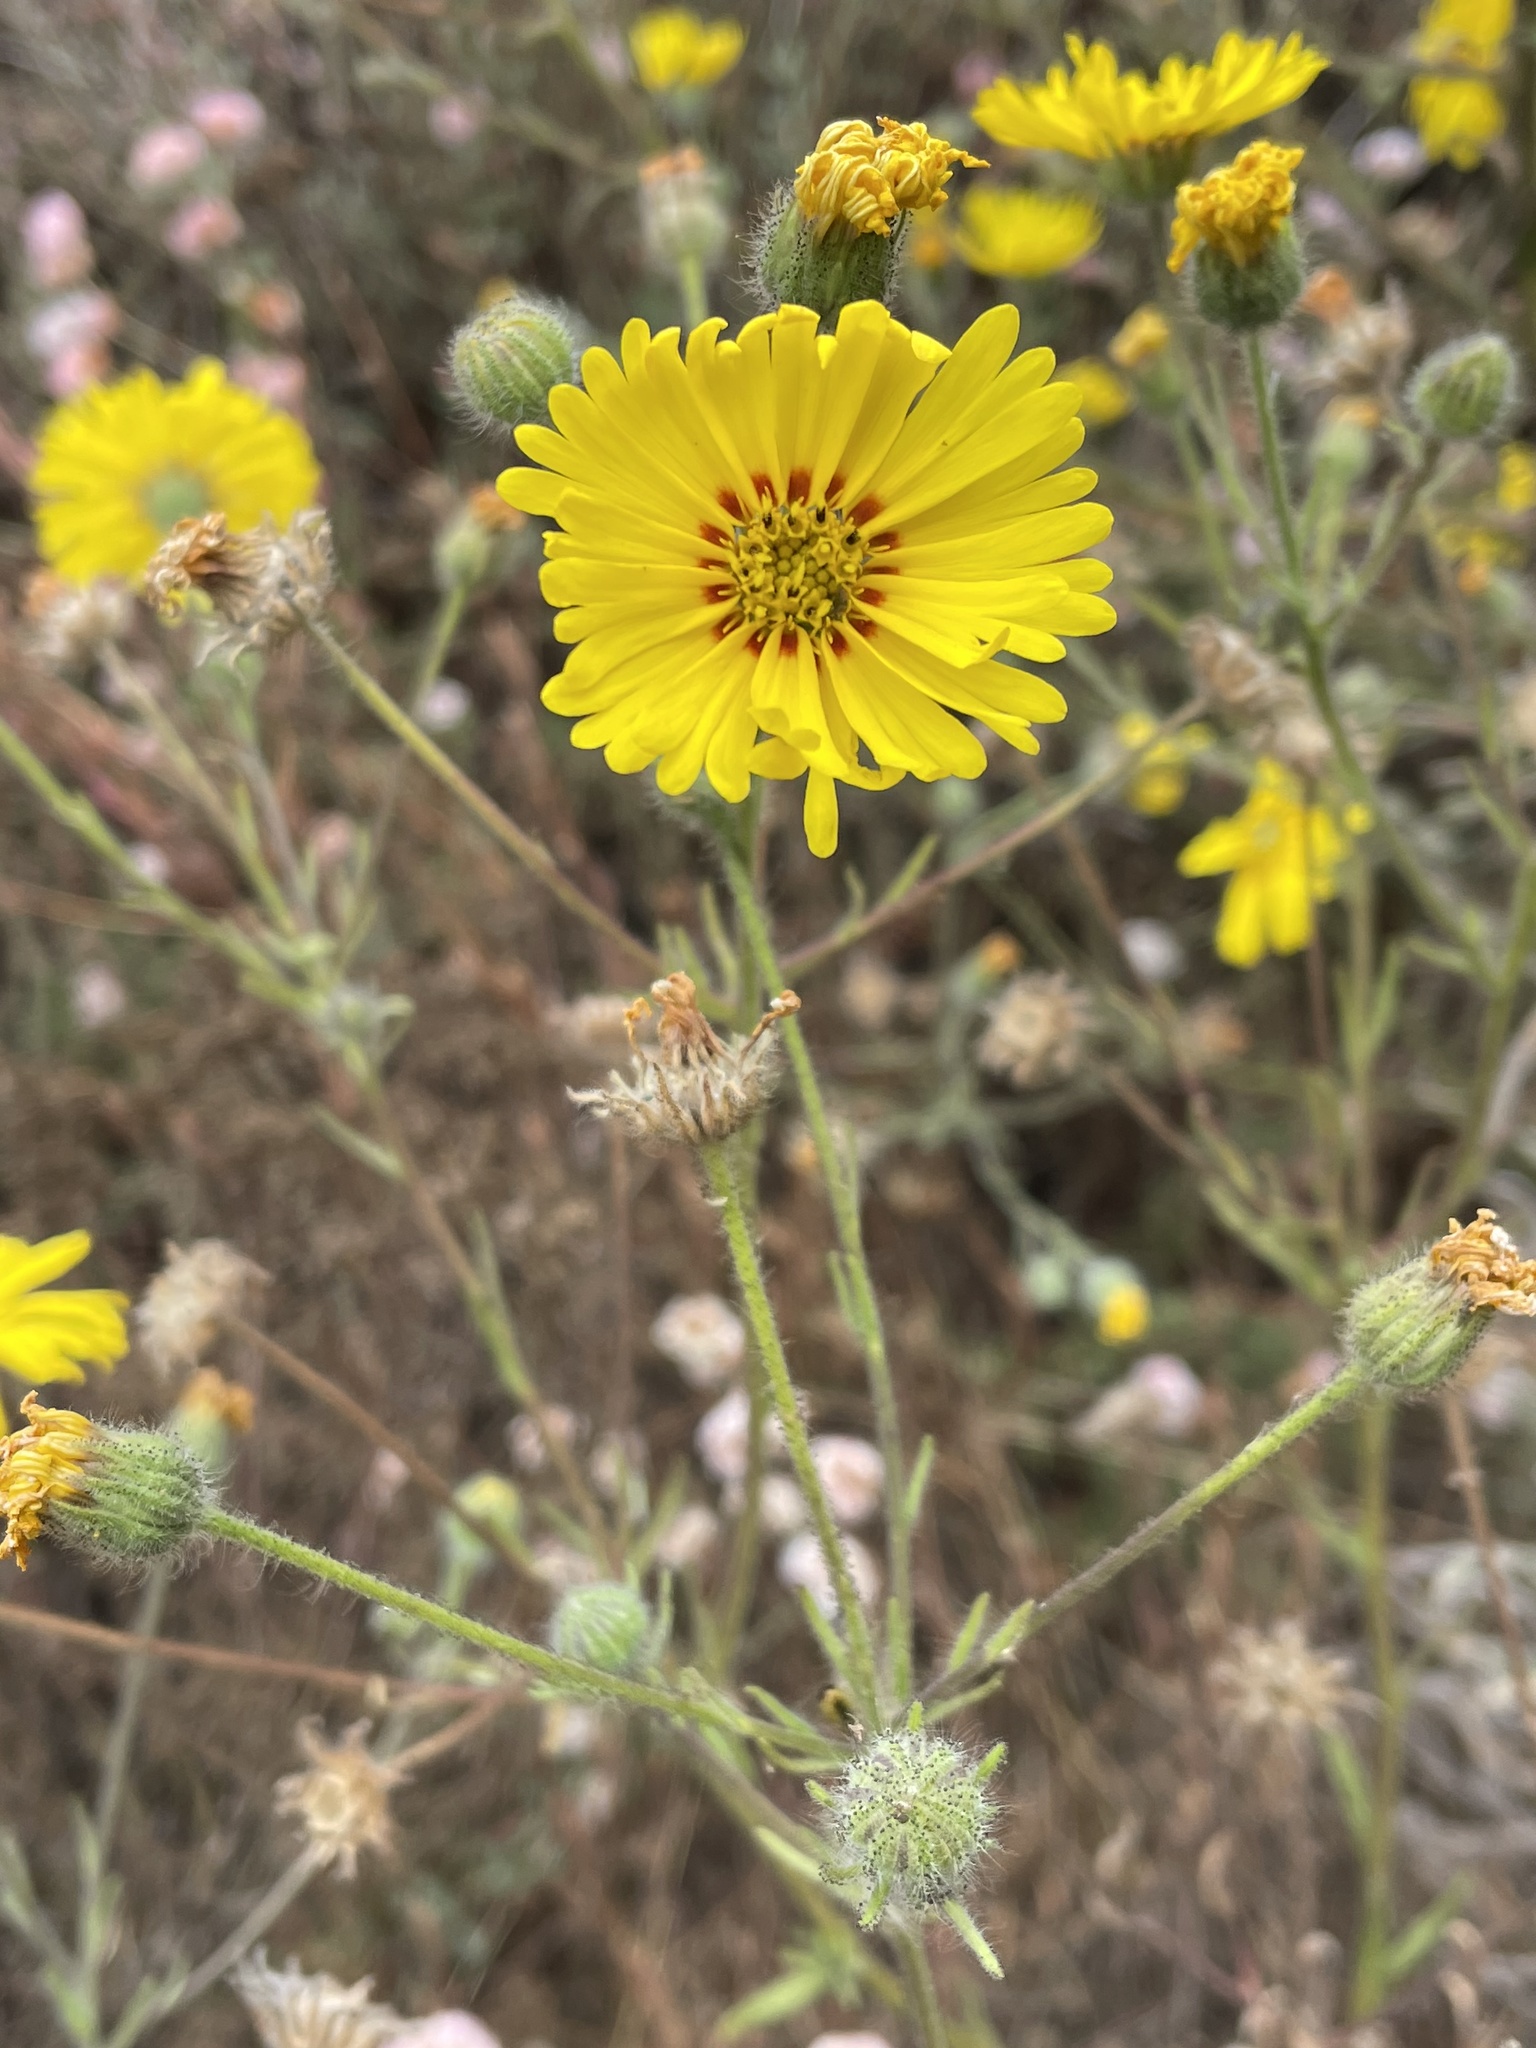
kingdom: Plantae
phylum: Tracheophyta
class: Magnoliopsida
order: Asterales
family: Asteraceae
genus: Madia
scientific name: Madia elegans
